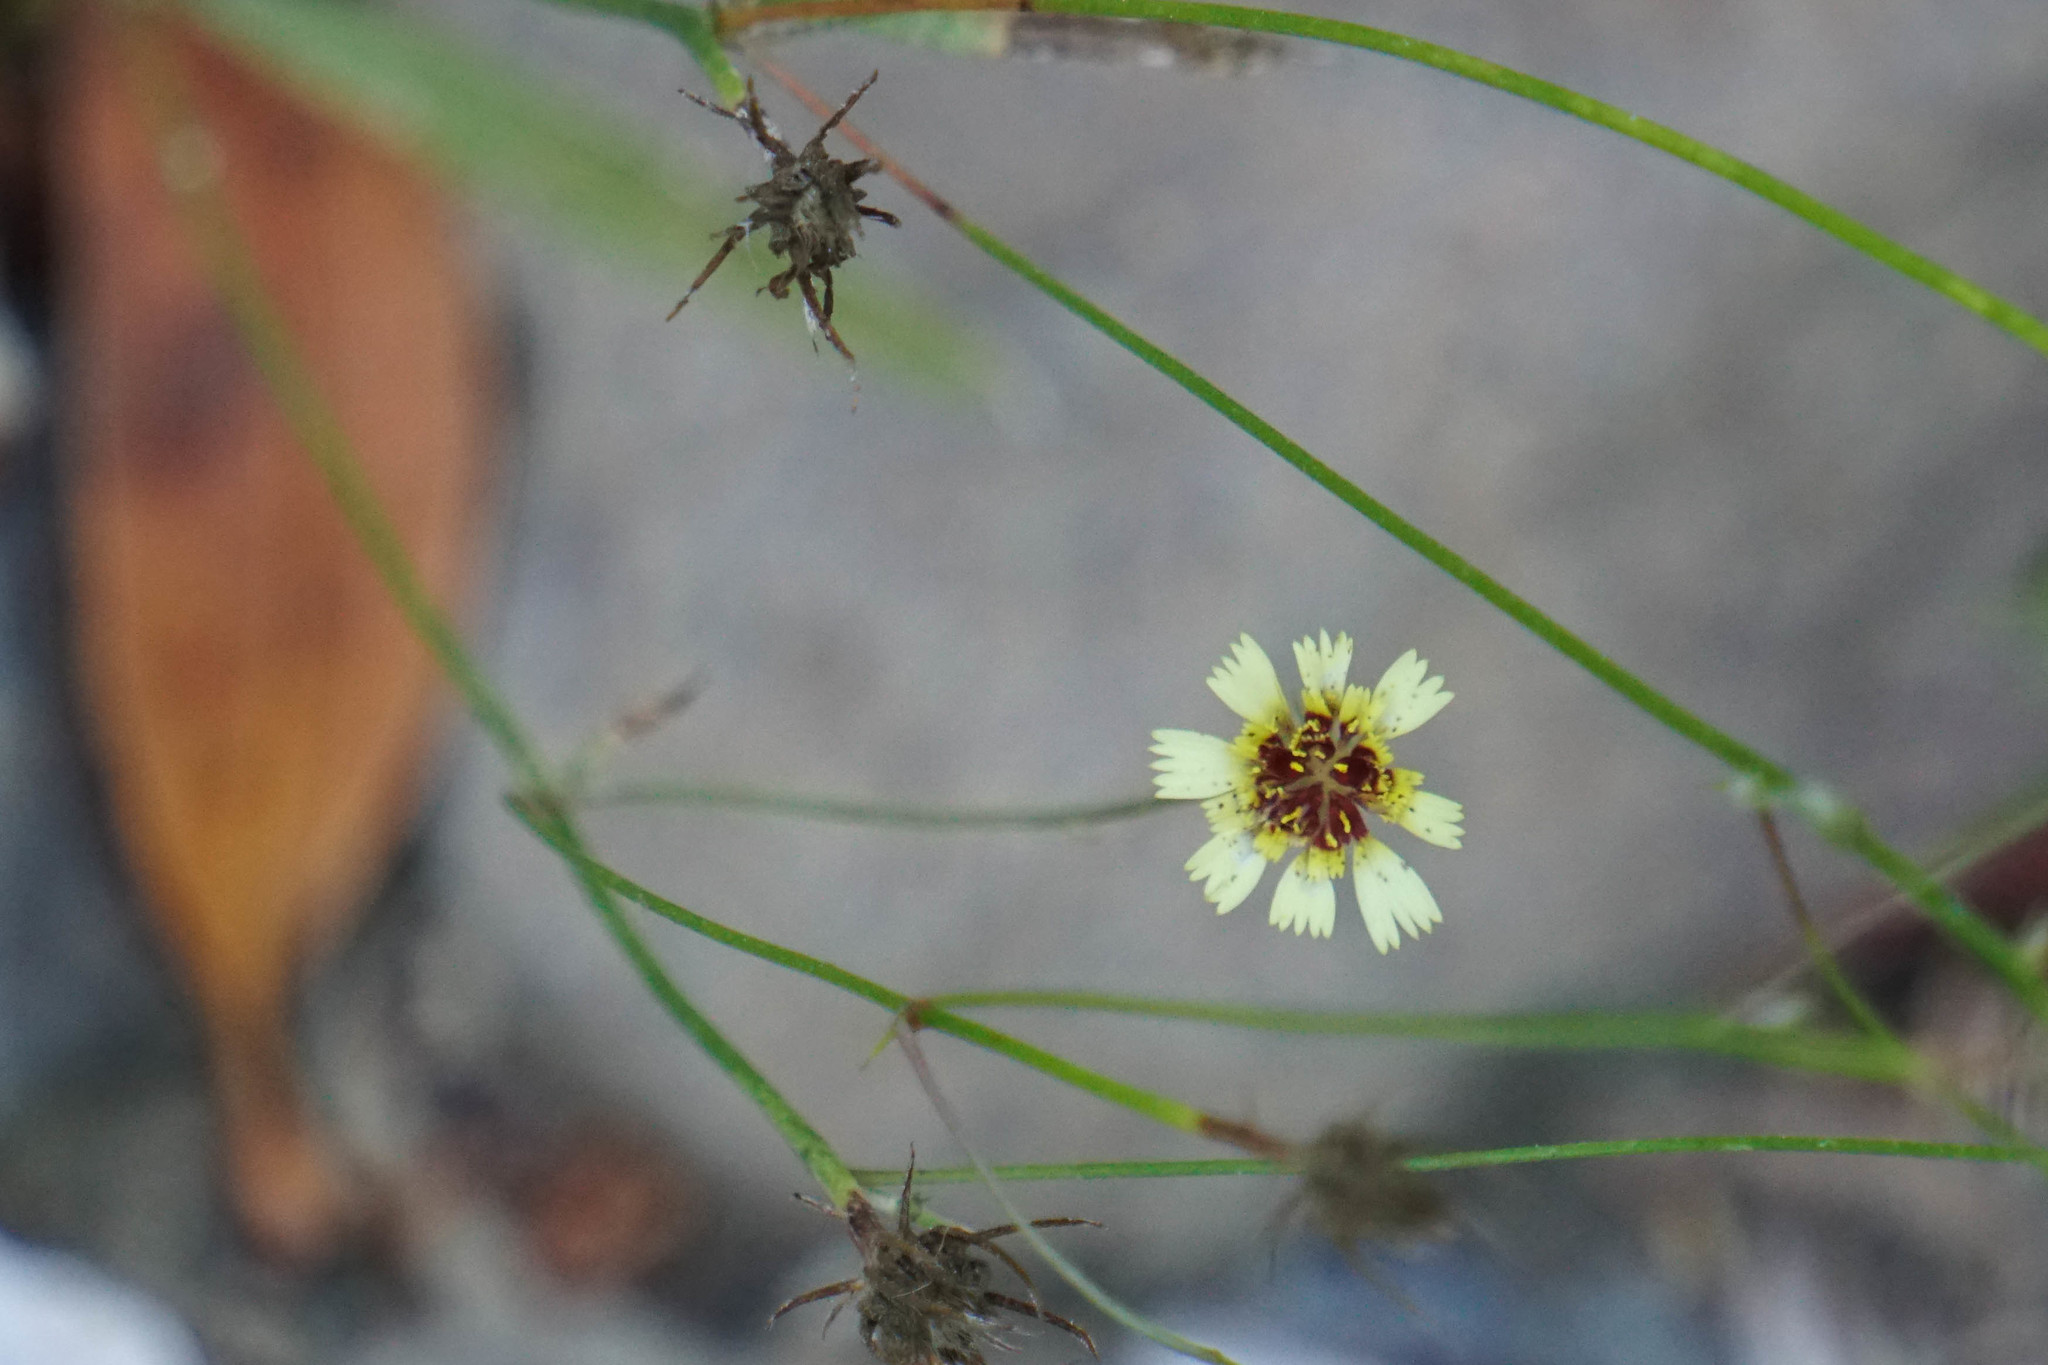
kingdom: Plantae
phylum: Tracheophyta
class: Magnoliopsida
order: Asterales
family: Asteraceae
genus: Tolpis
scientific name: Tolpis barbata
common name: Yellow hawkweed
